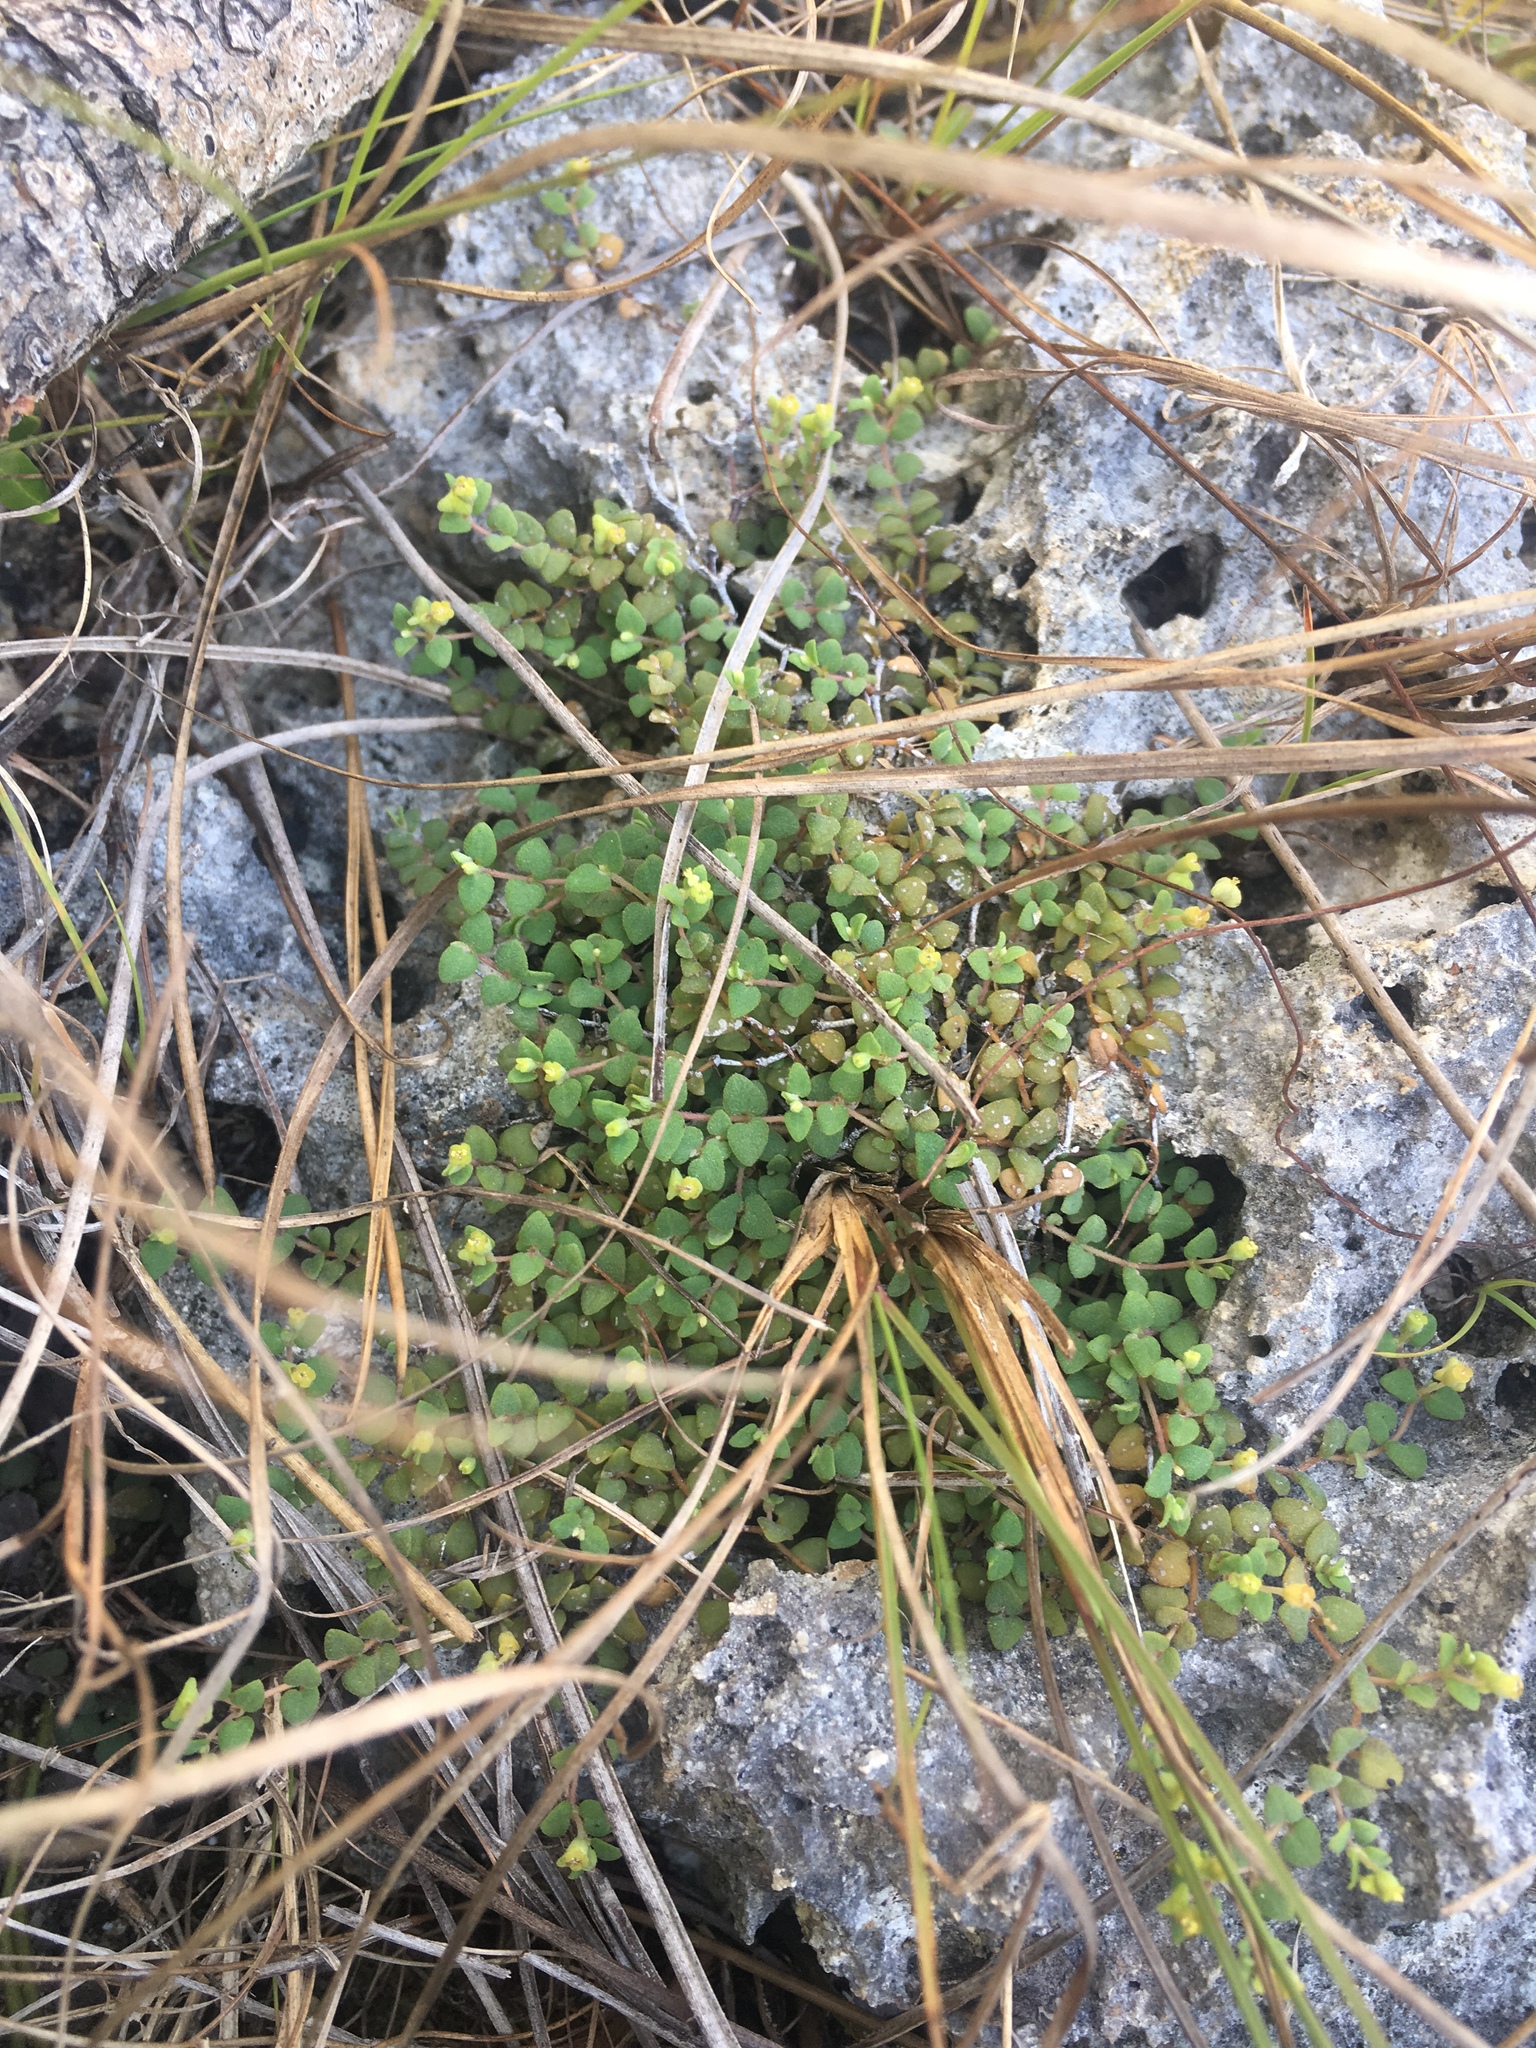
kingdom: Plantae
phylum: Tracheophyta
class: Magnoliopsida
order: Malpighiales
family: Euphorbiaceae
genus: Euphorbia
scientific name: Euphorbia deltoidea
